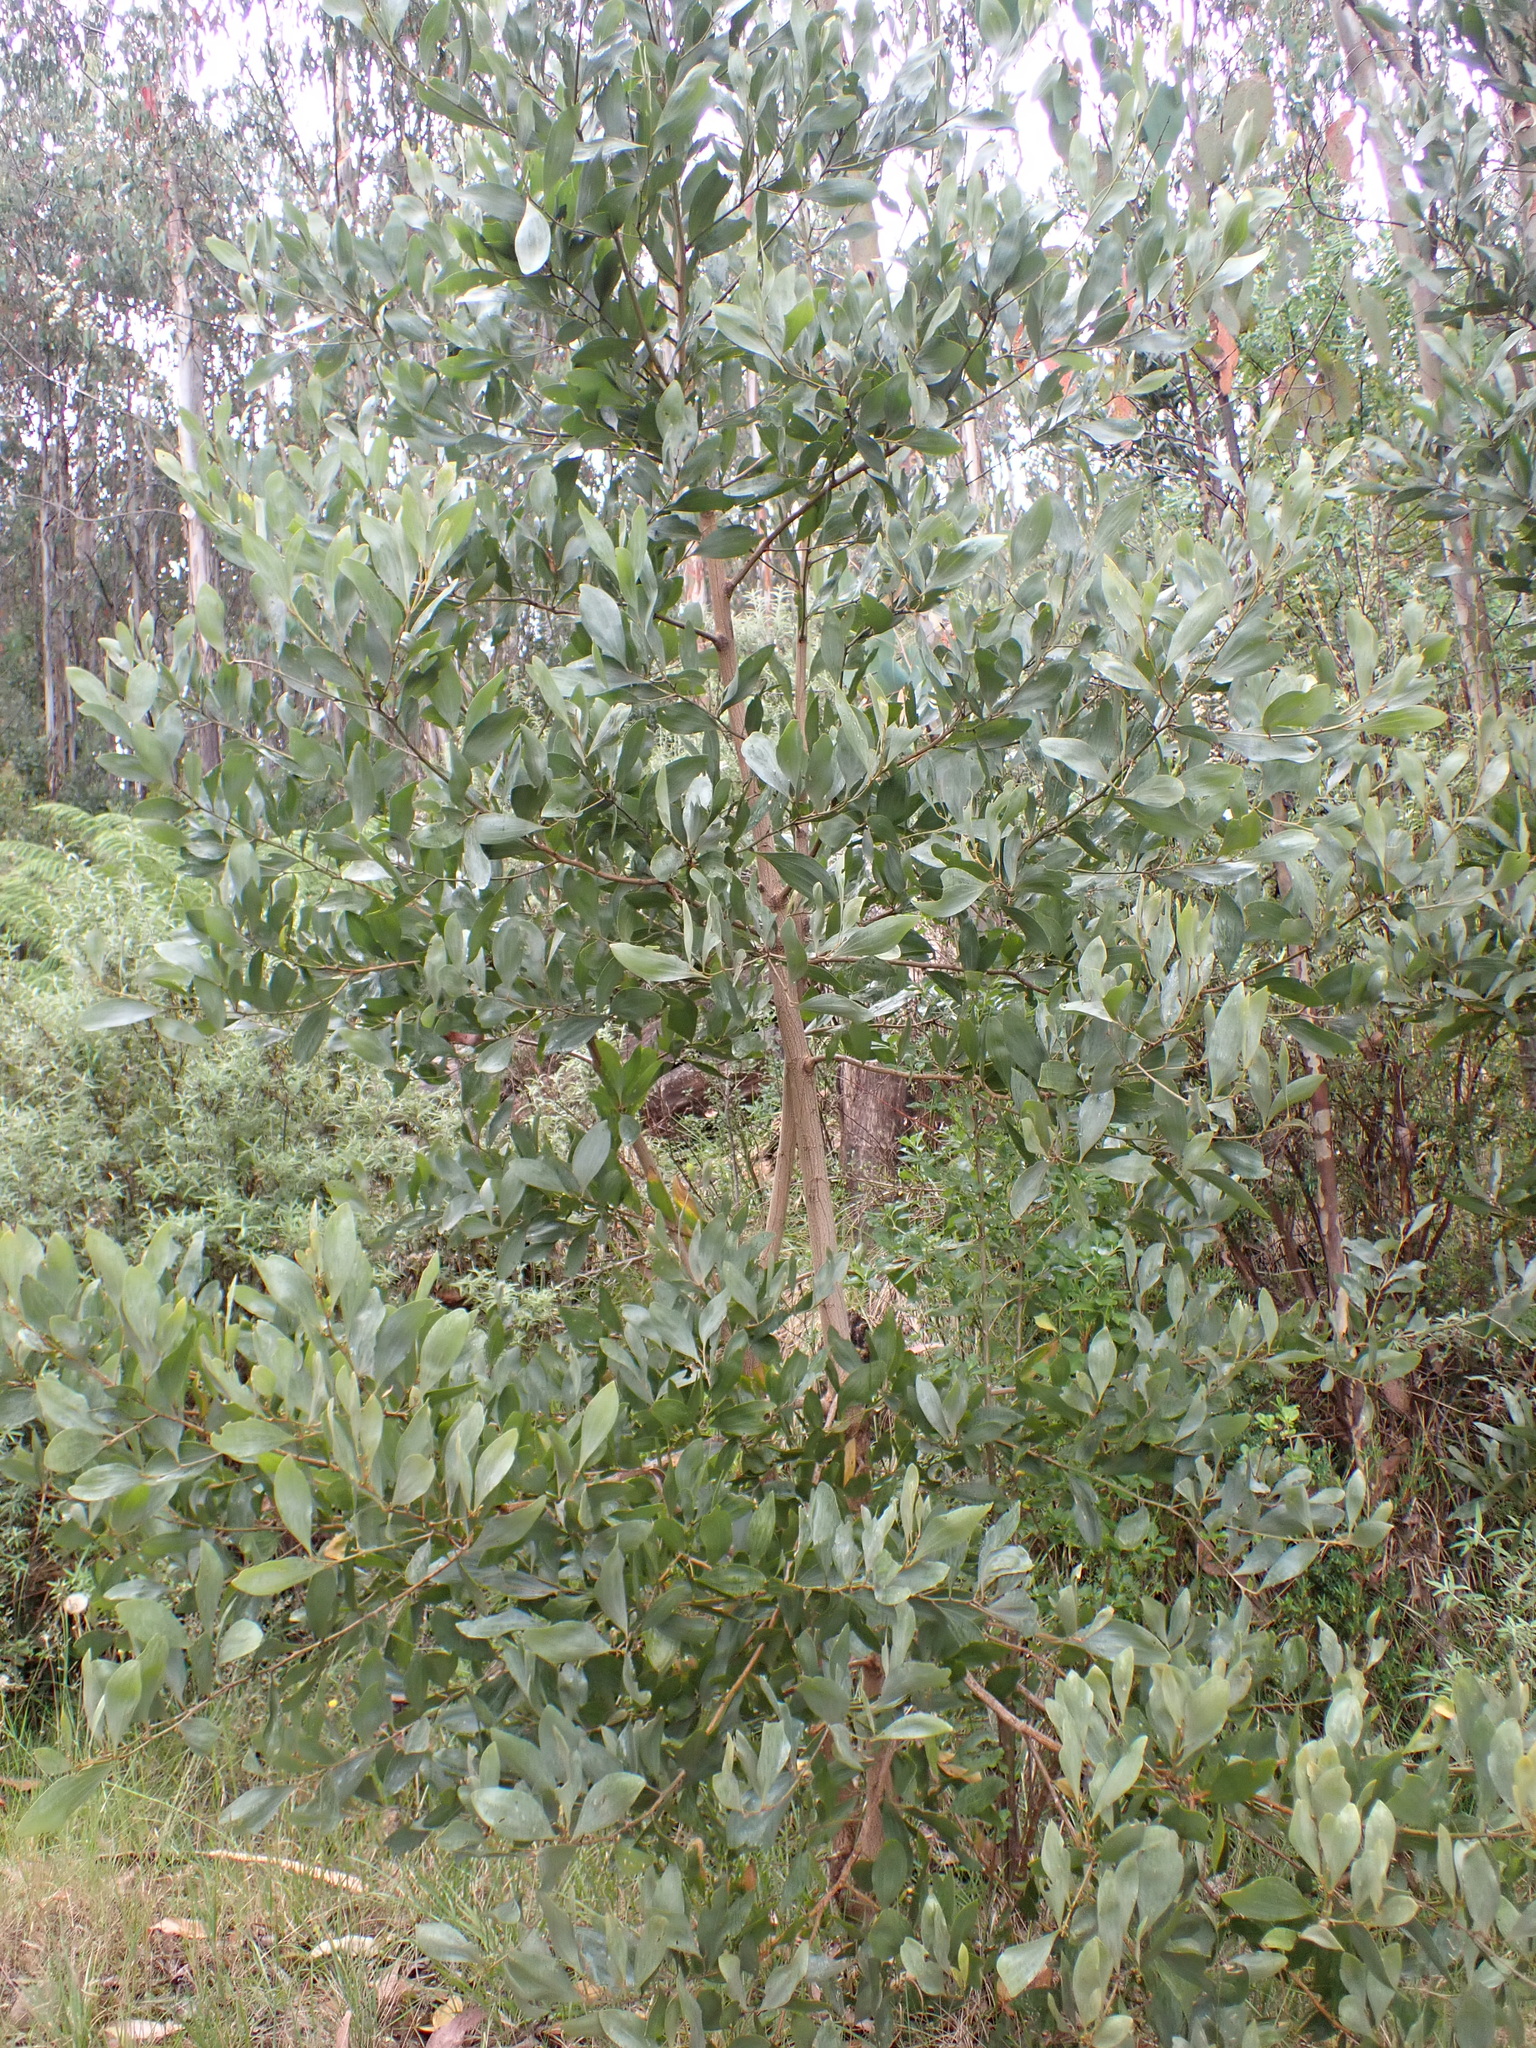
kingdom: Plantae
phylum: Tracheophyta
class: Magnoliopsida
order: Fabales
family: Fabaceae
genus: Acacia
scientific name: Acacia frigescens
